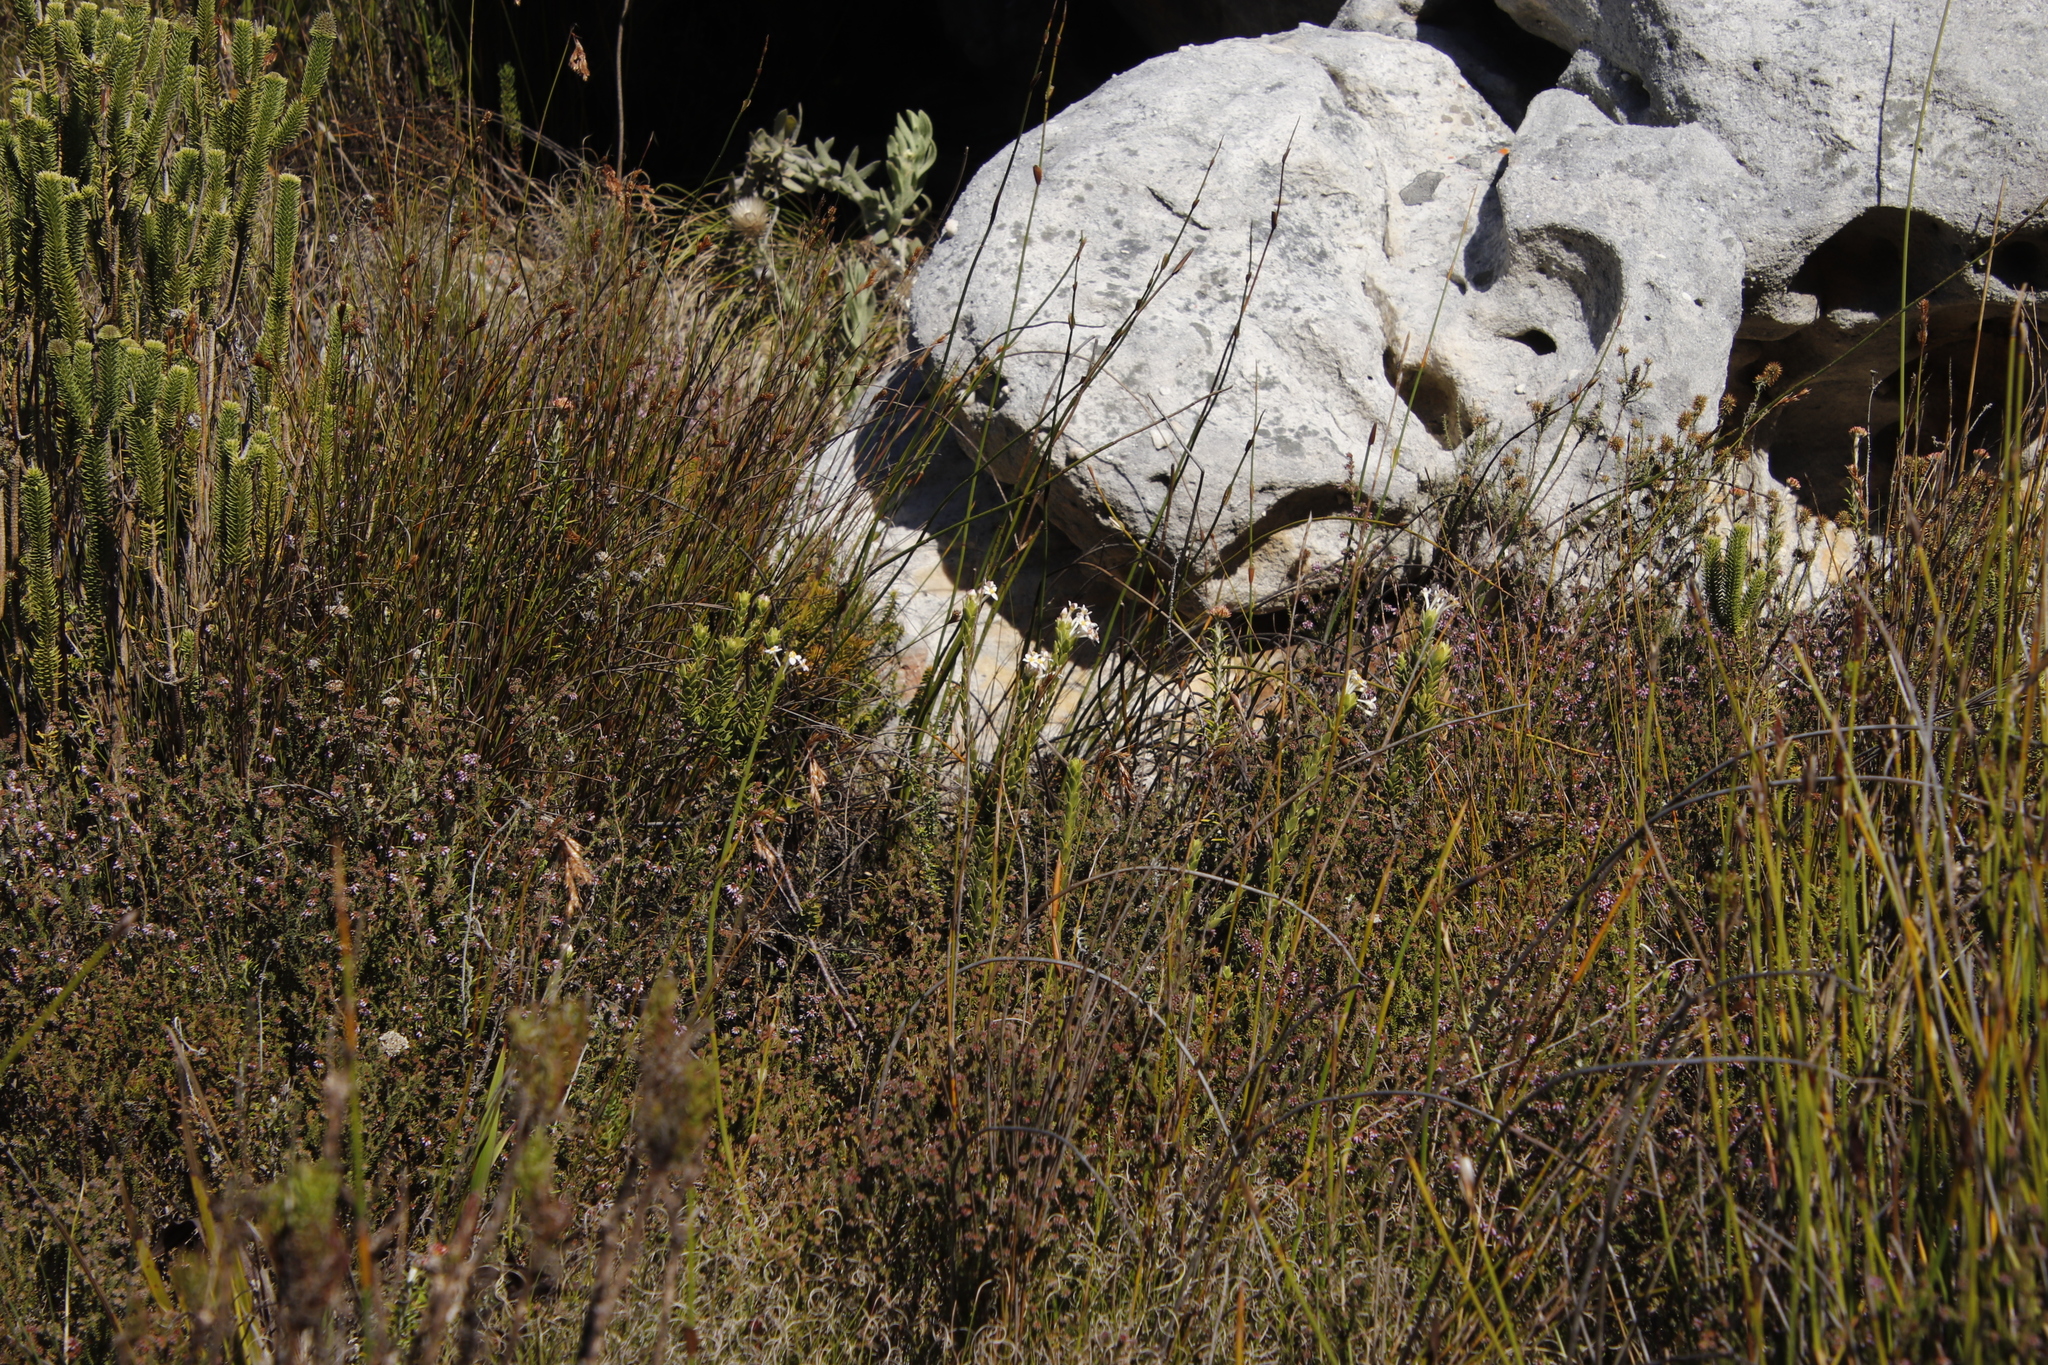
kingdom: Plantae
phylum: Tracheophyta
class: Magnoliopsida
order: Malvales
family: Thymelaeaceae
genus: Gnidia
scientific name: Gnidia tomentosa
